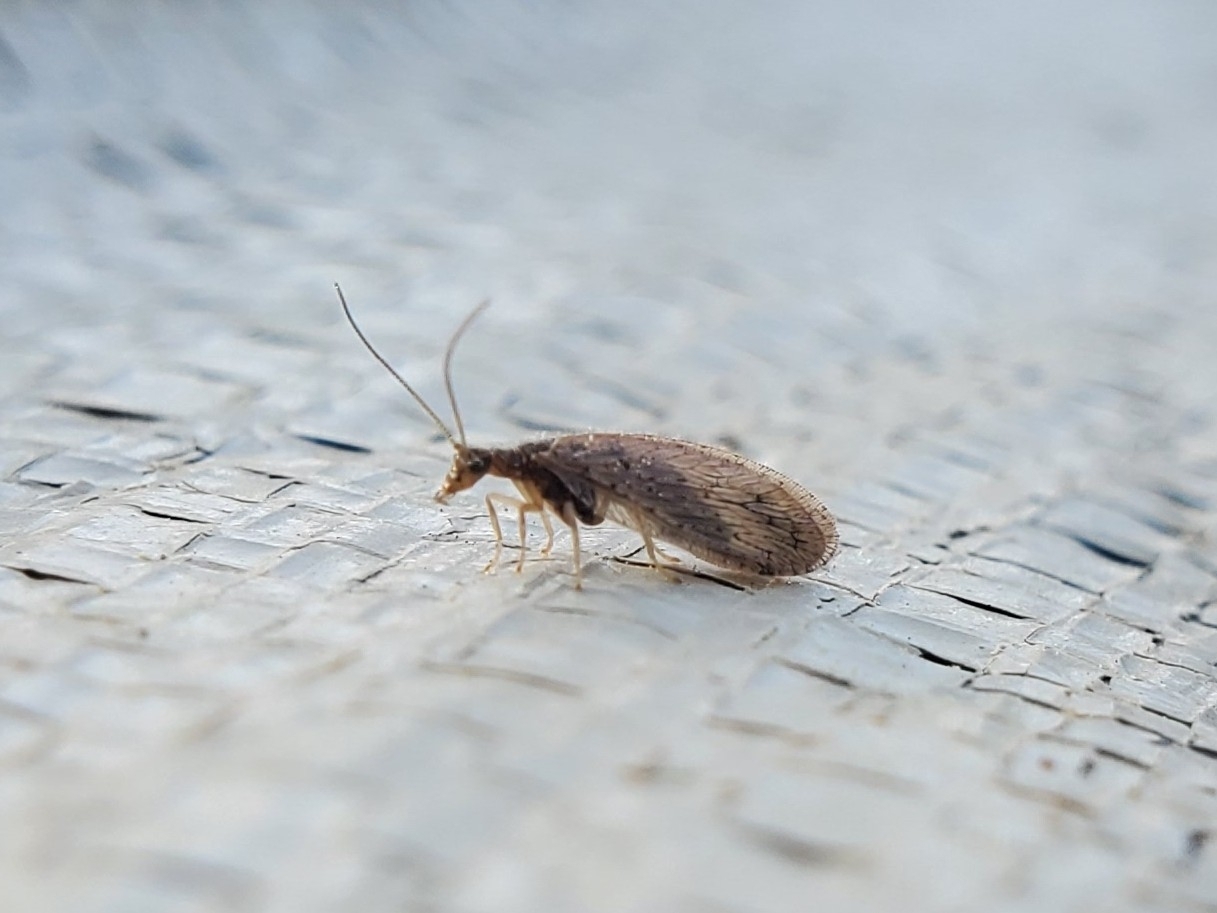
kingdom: Animalia
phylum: Arthropoda
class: Insecta
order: Neuroptera
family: Hemerobiidae
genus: Micromus
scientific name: Micromus subanticus
